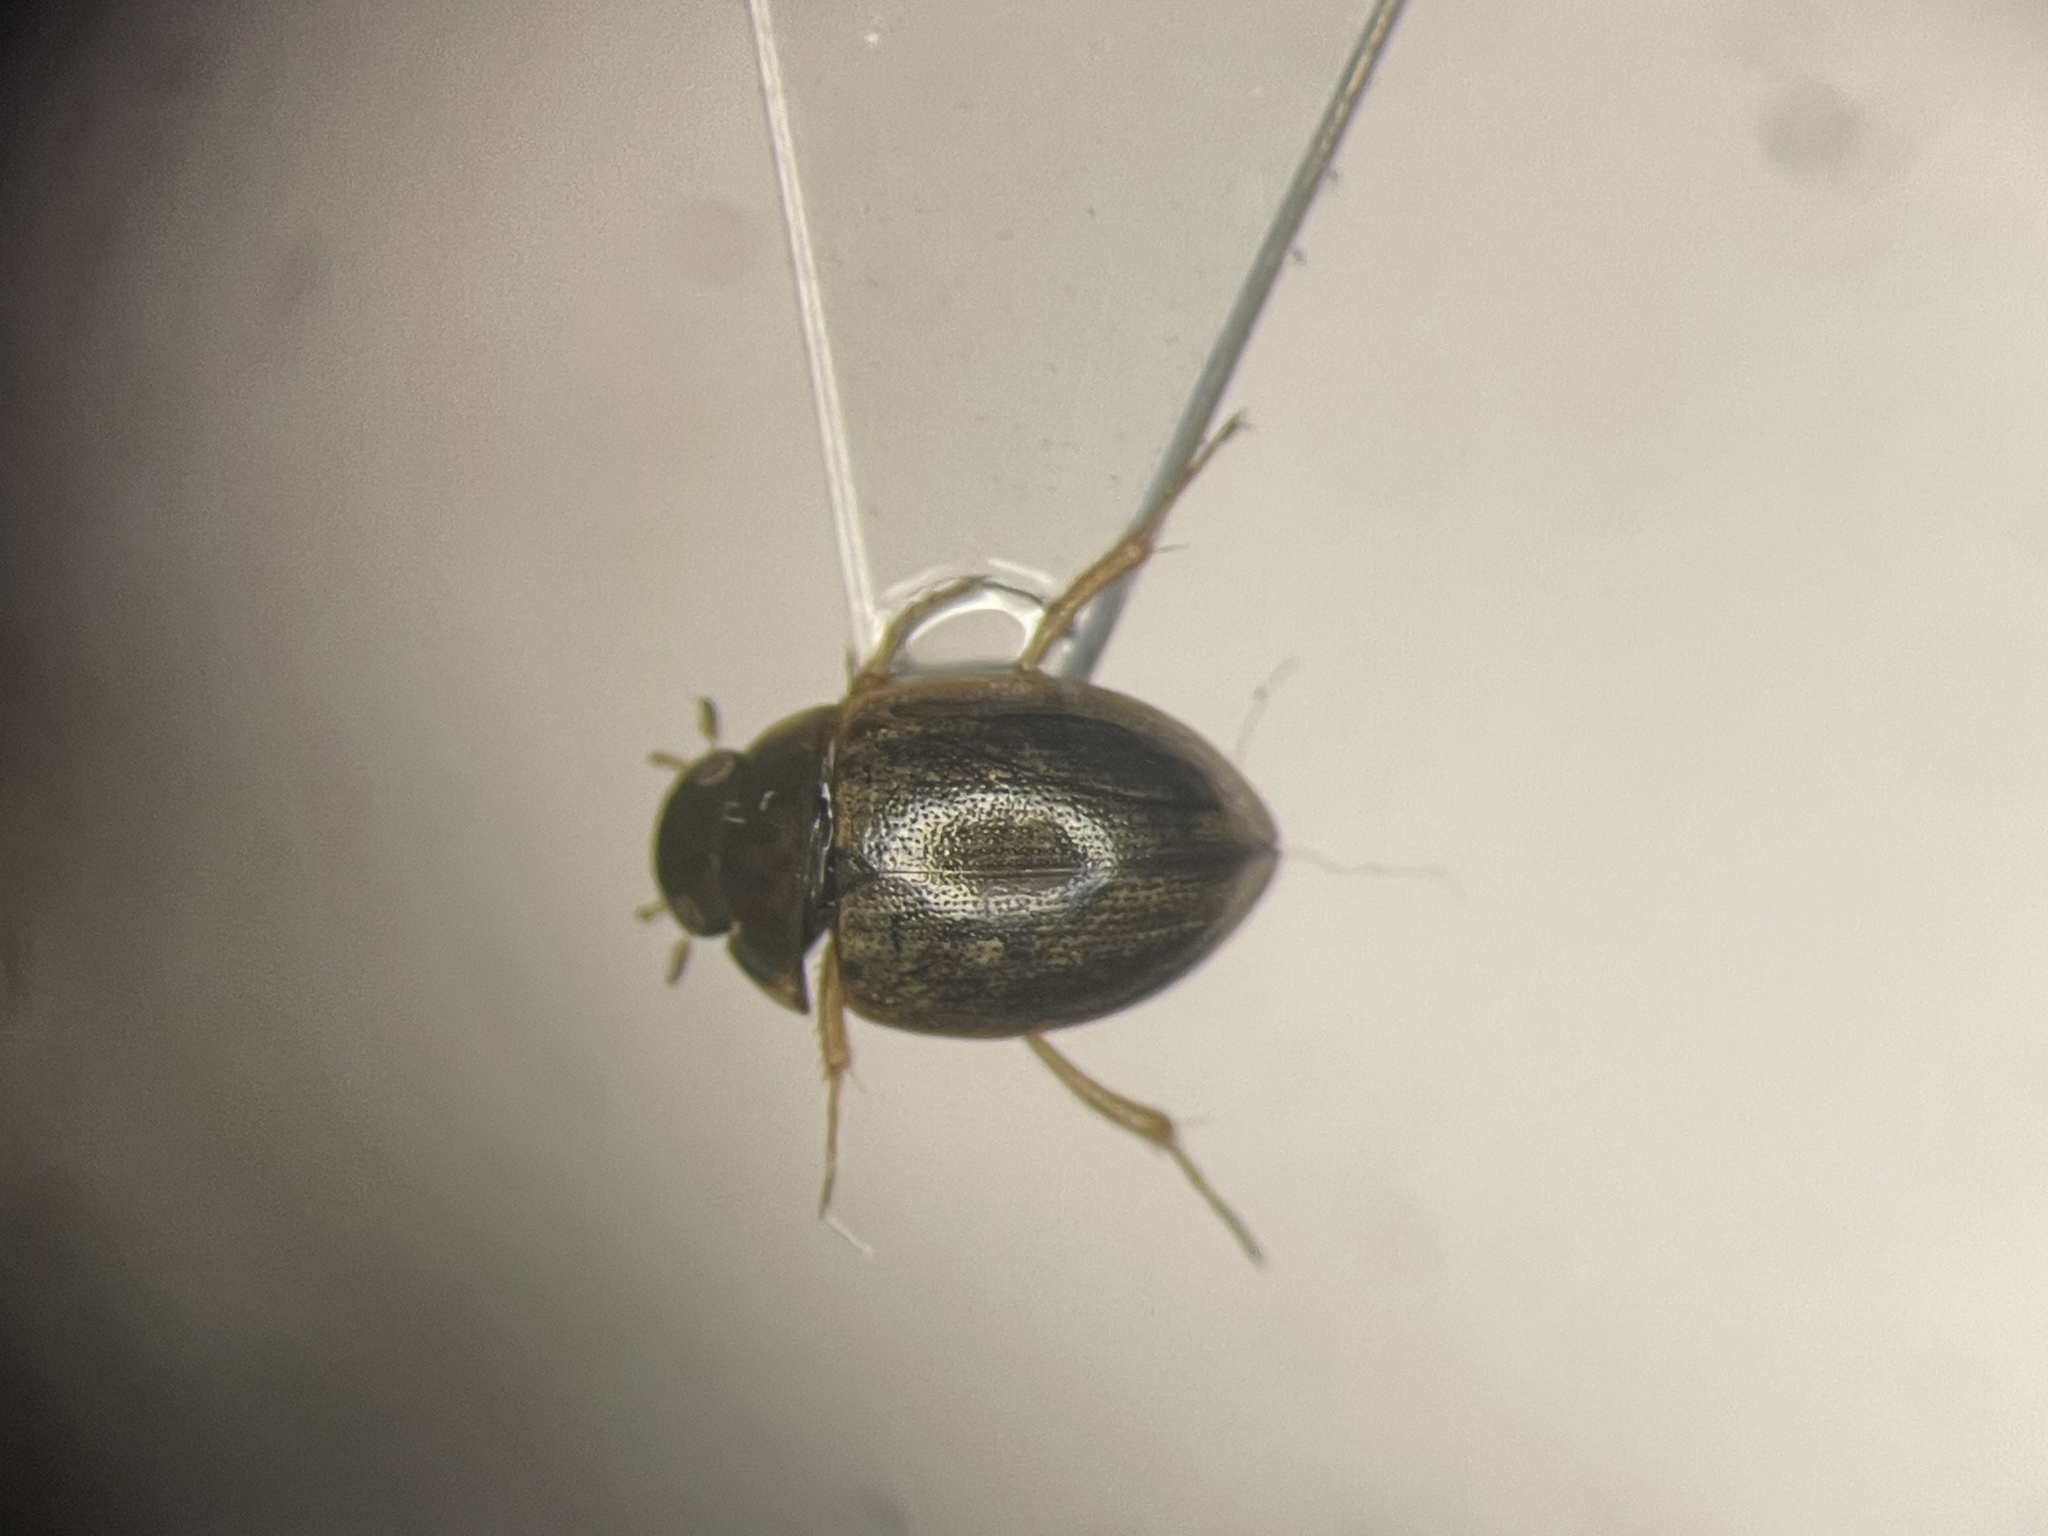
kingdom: Animalia
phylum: Arthropoda
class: Insecta
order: Coleoptera
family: Hydrophilidae
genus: Laccobius
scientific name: Laccobius spangleri
